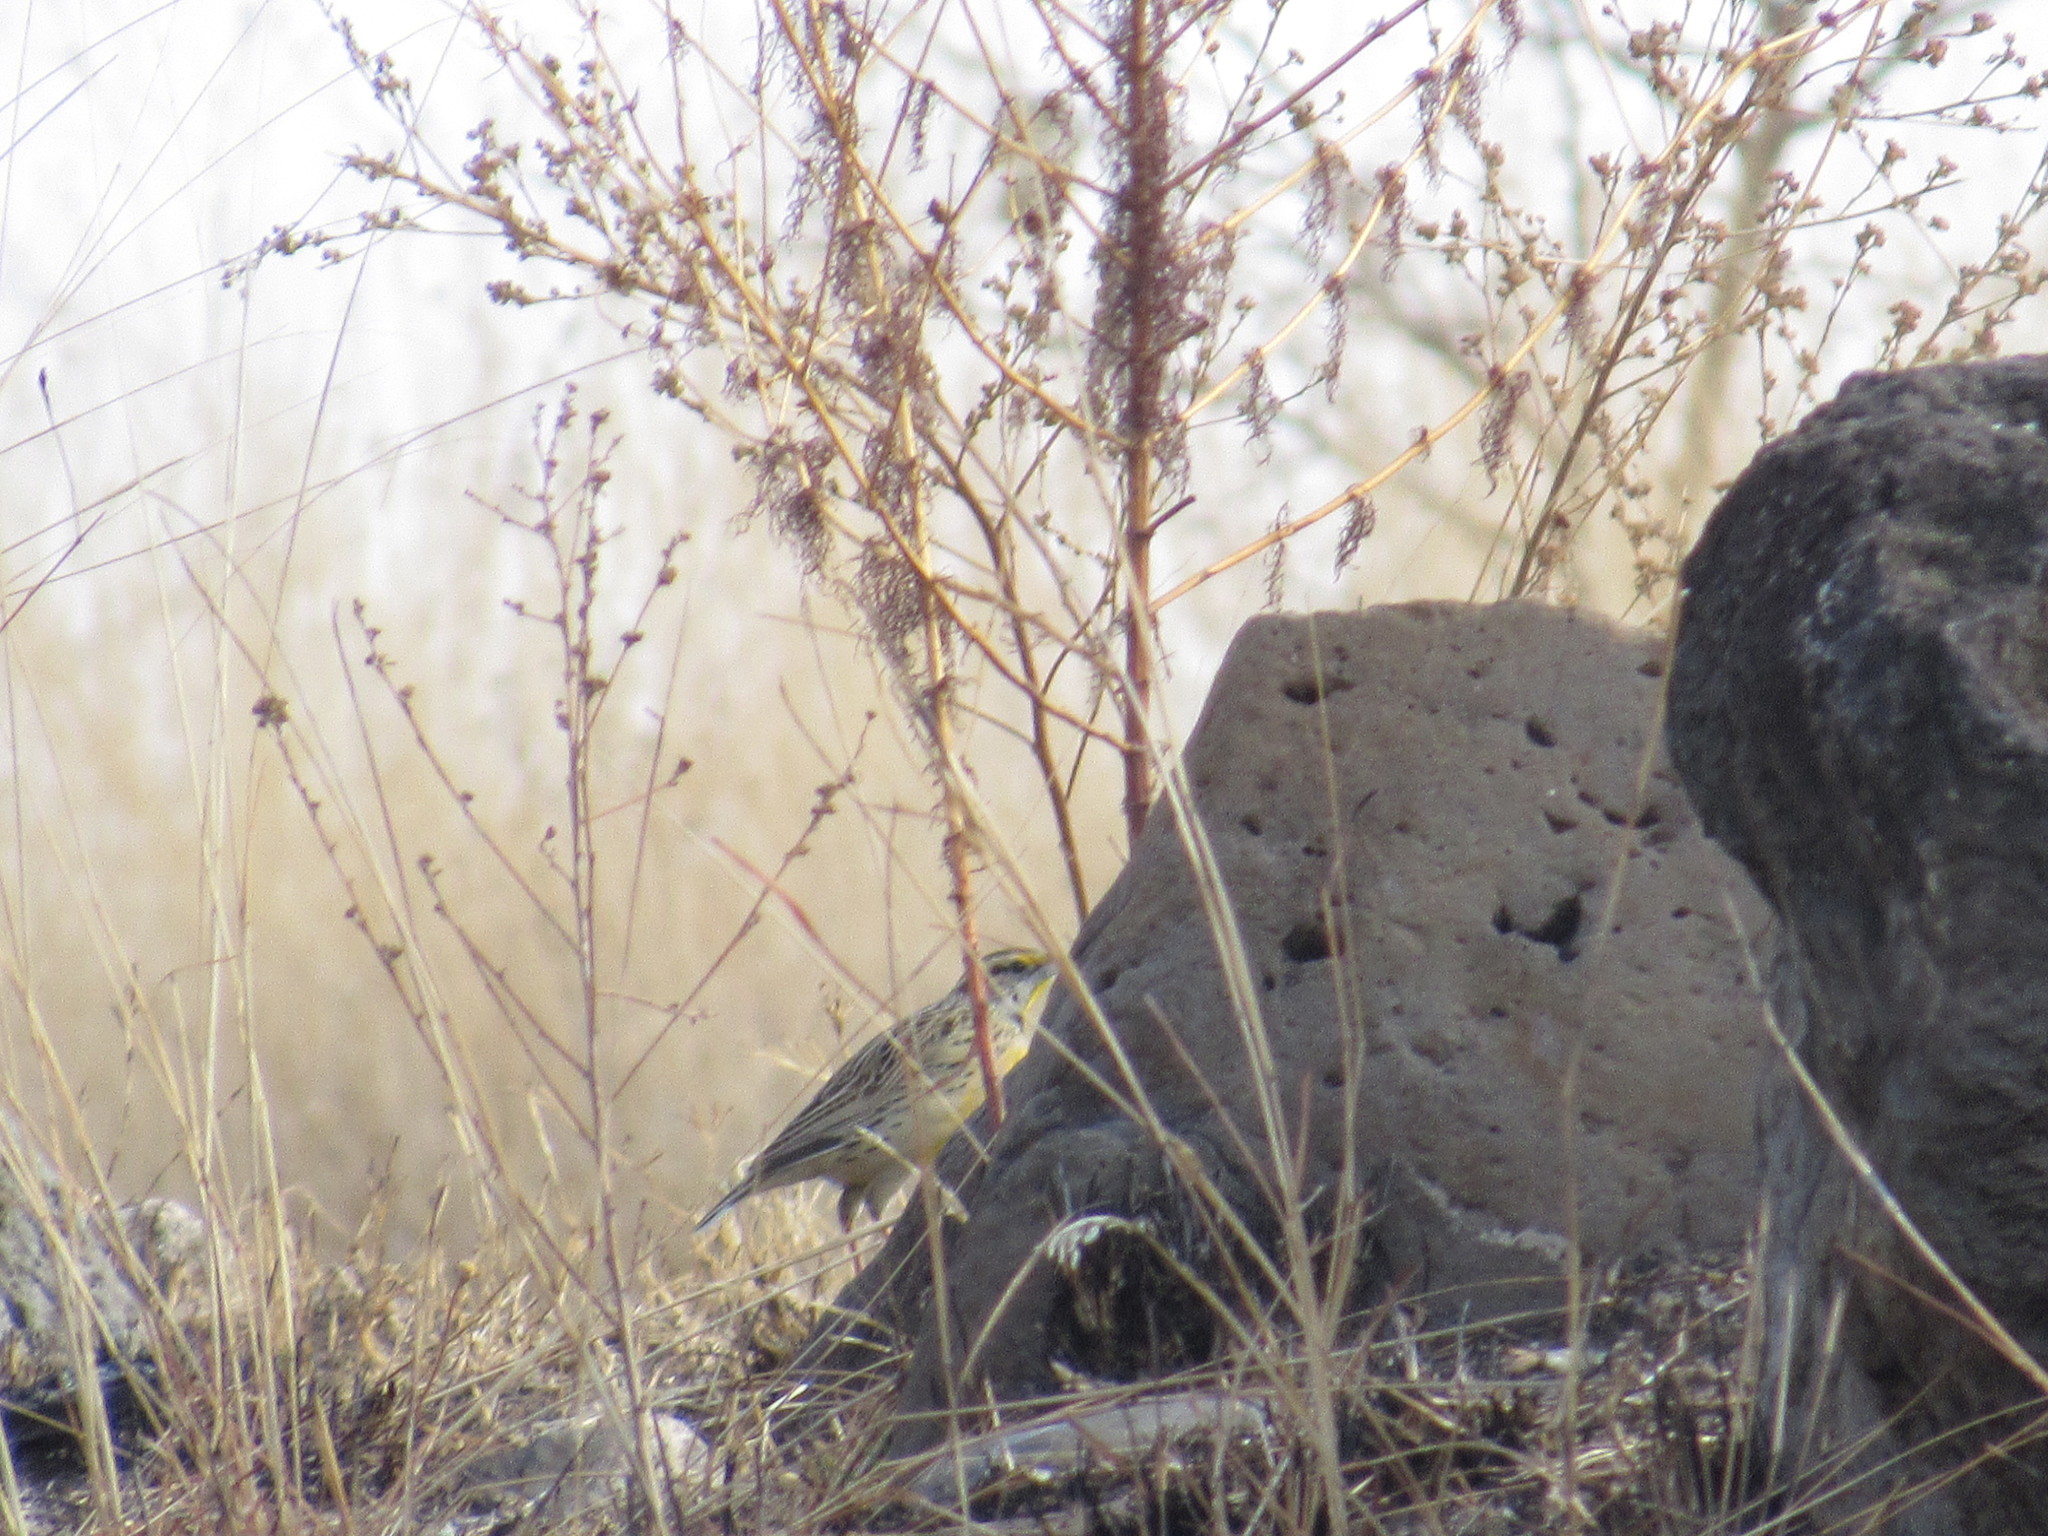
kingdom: Animalia
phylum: Chordata
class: Aves
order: Passeriformes
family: Icteridae
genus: Sturnella
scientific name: Sturnella lilianae
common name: Lilian's meadowlark
